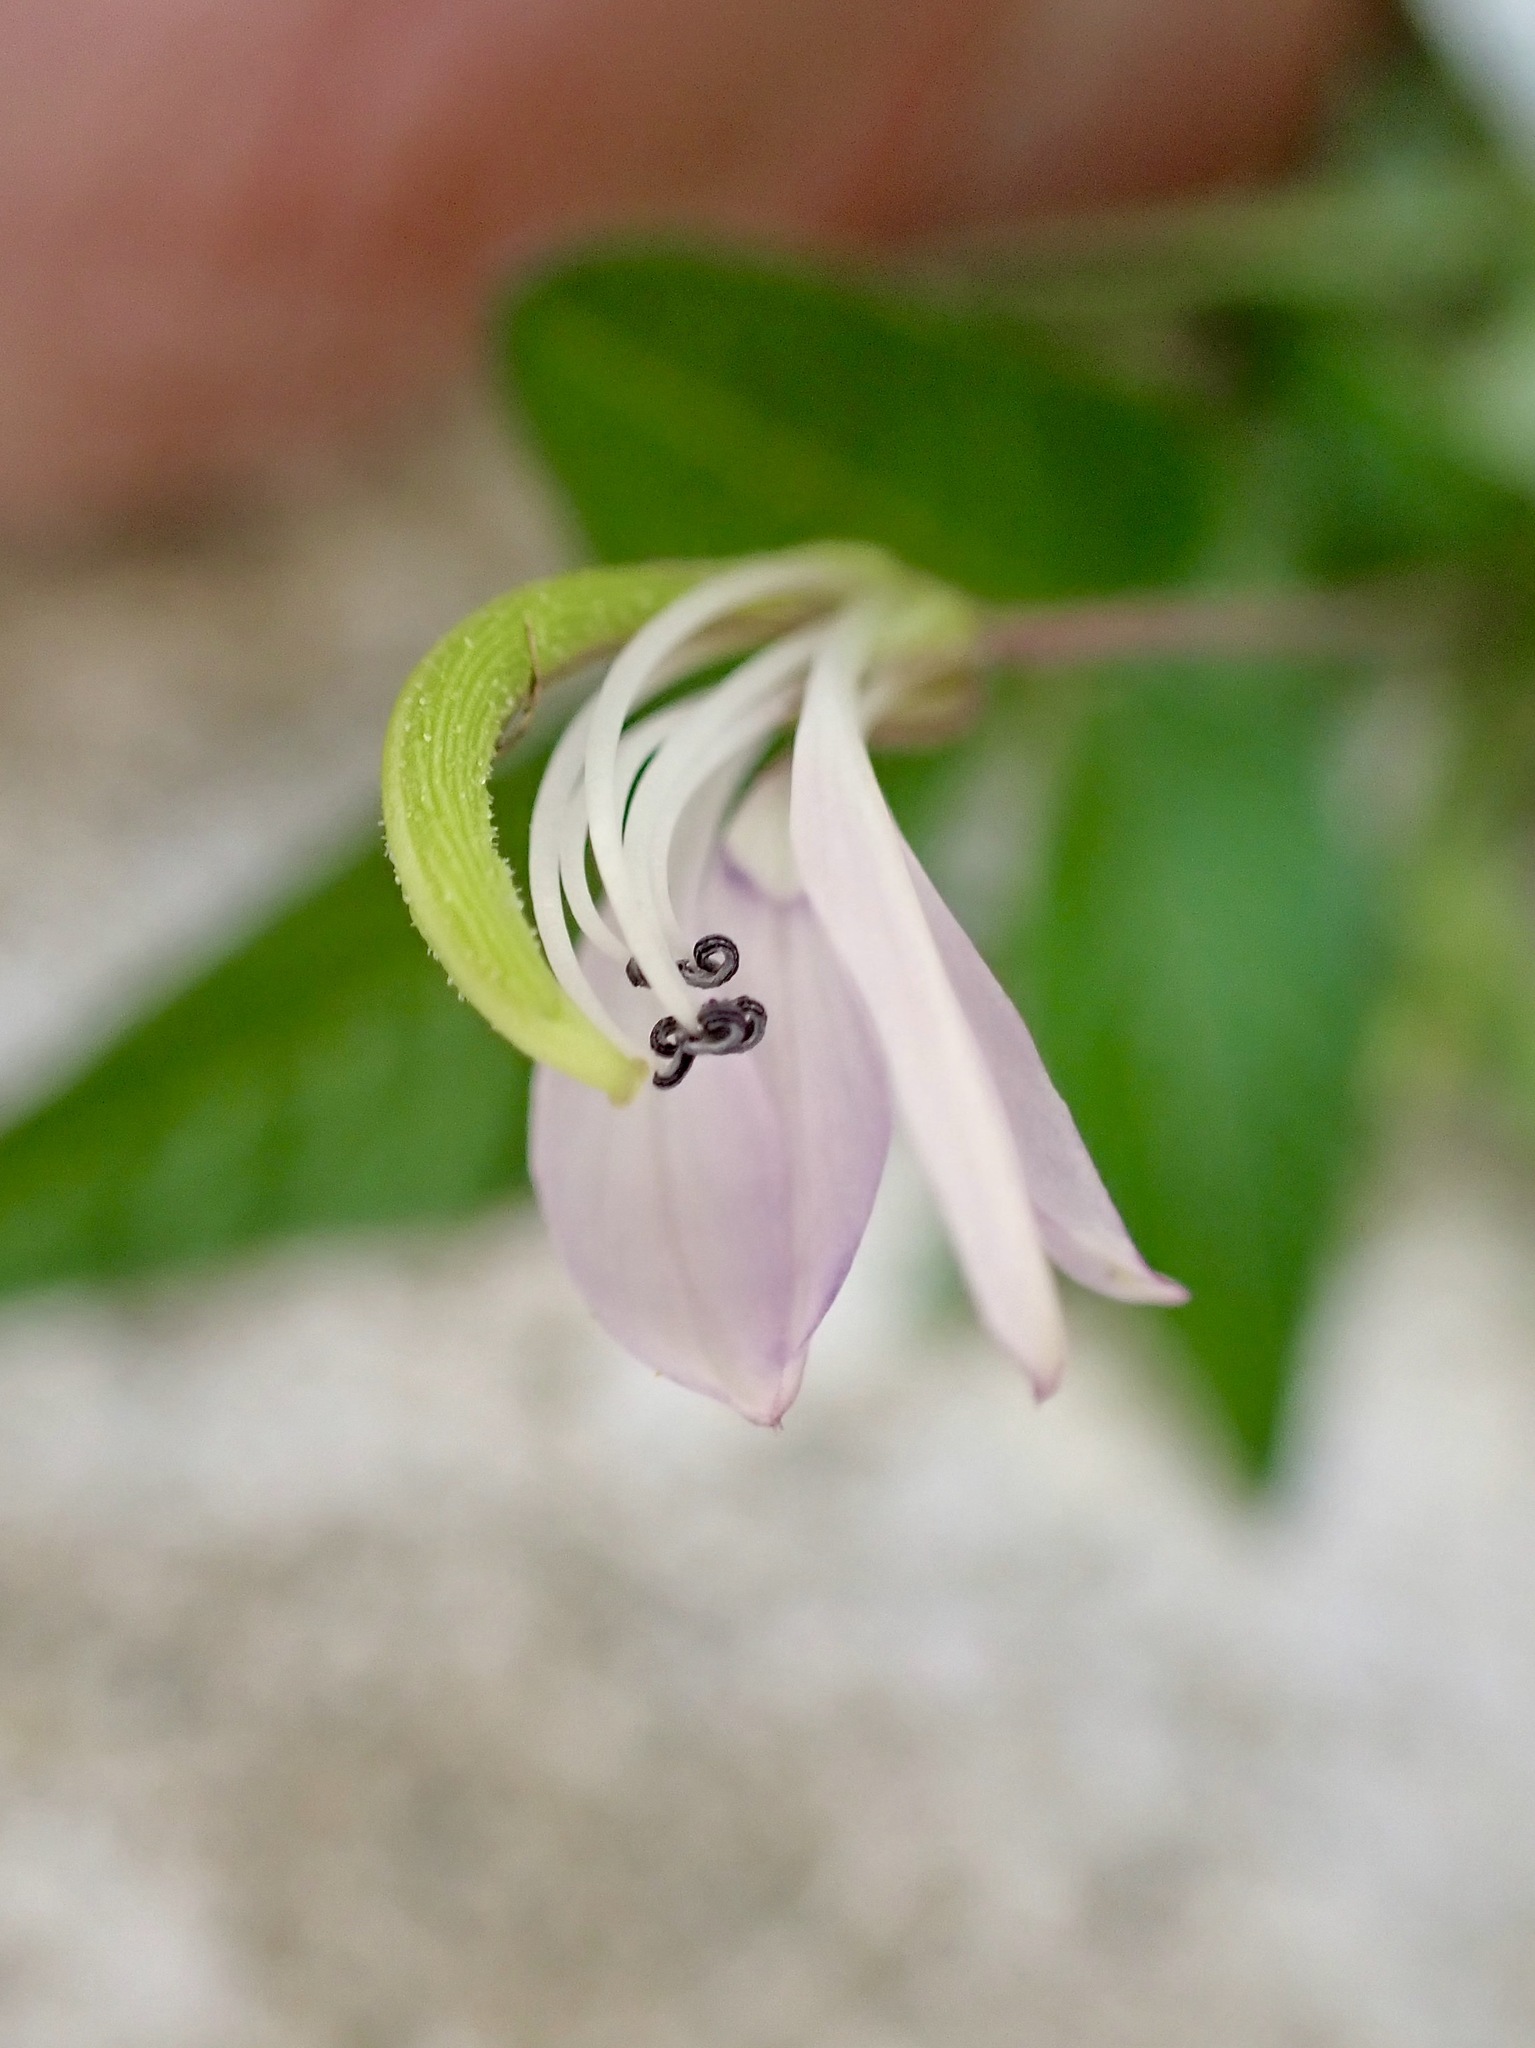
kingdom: Plantae
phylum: Tracheophyta
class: Magnoliopsida
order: Brassicales
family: Cleomaceae
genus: Sieruela
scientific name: Sieruela rutidosperma
